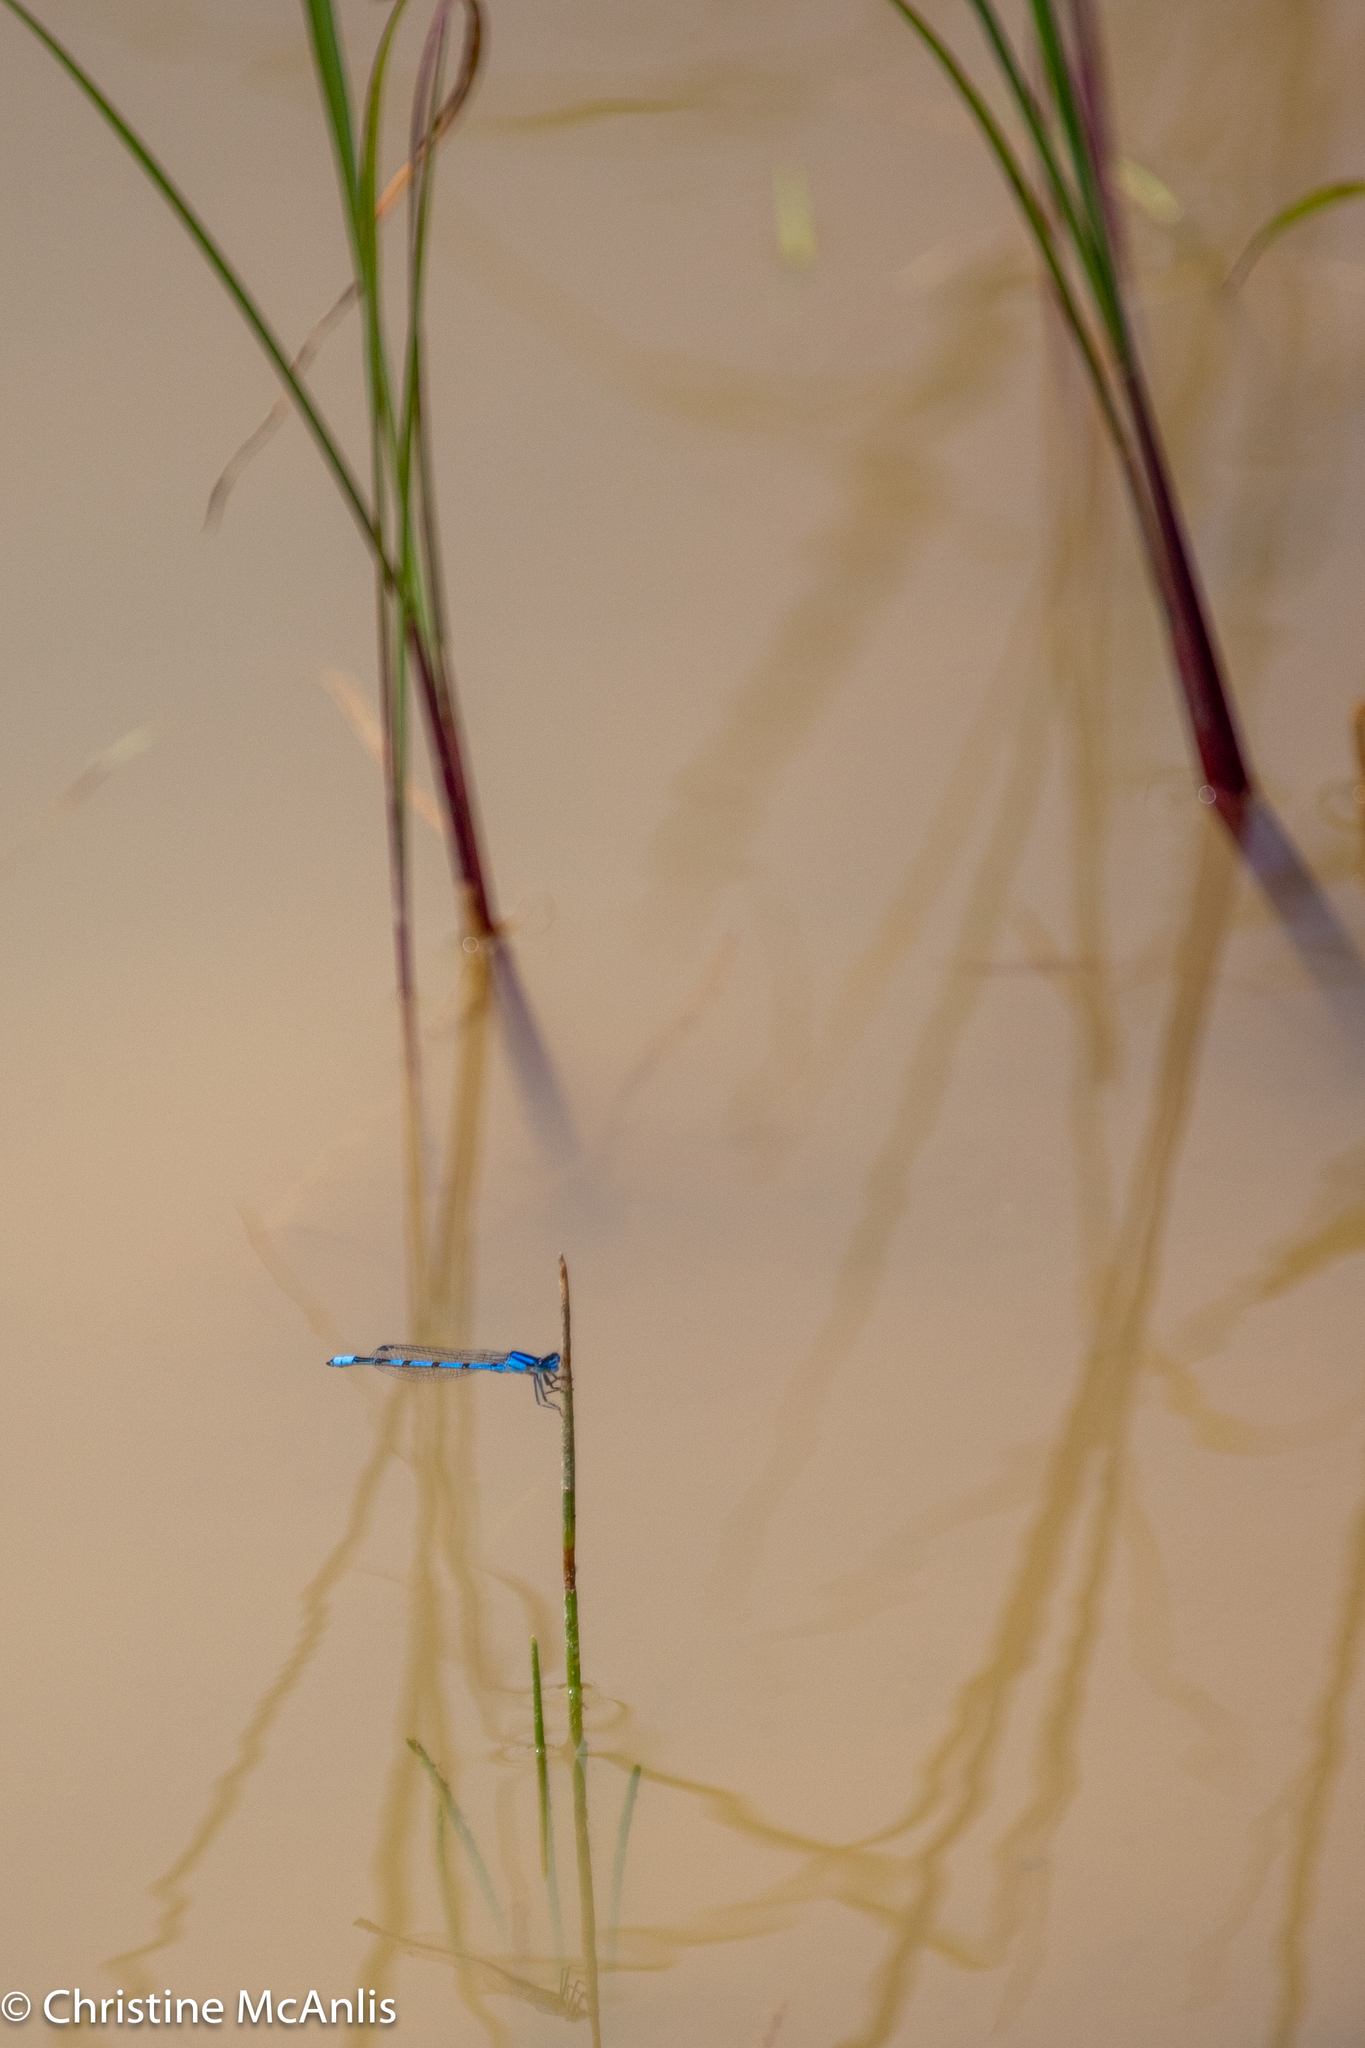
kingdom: Animalia
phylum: Arthropoda
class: Insecta
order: Odonata
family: Coenagrionidae
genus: Enallagma
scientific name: Enallagma civile
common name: Damselfly
